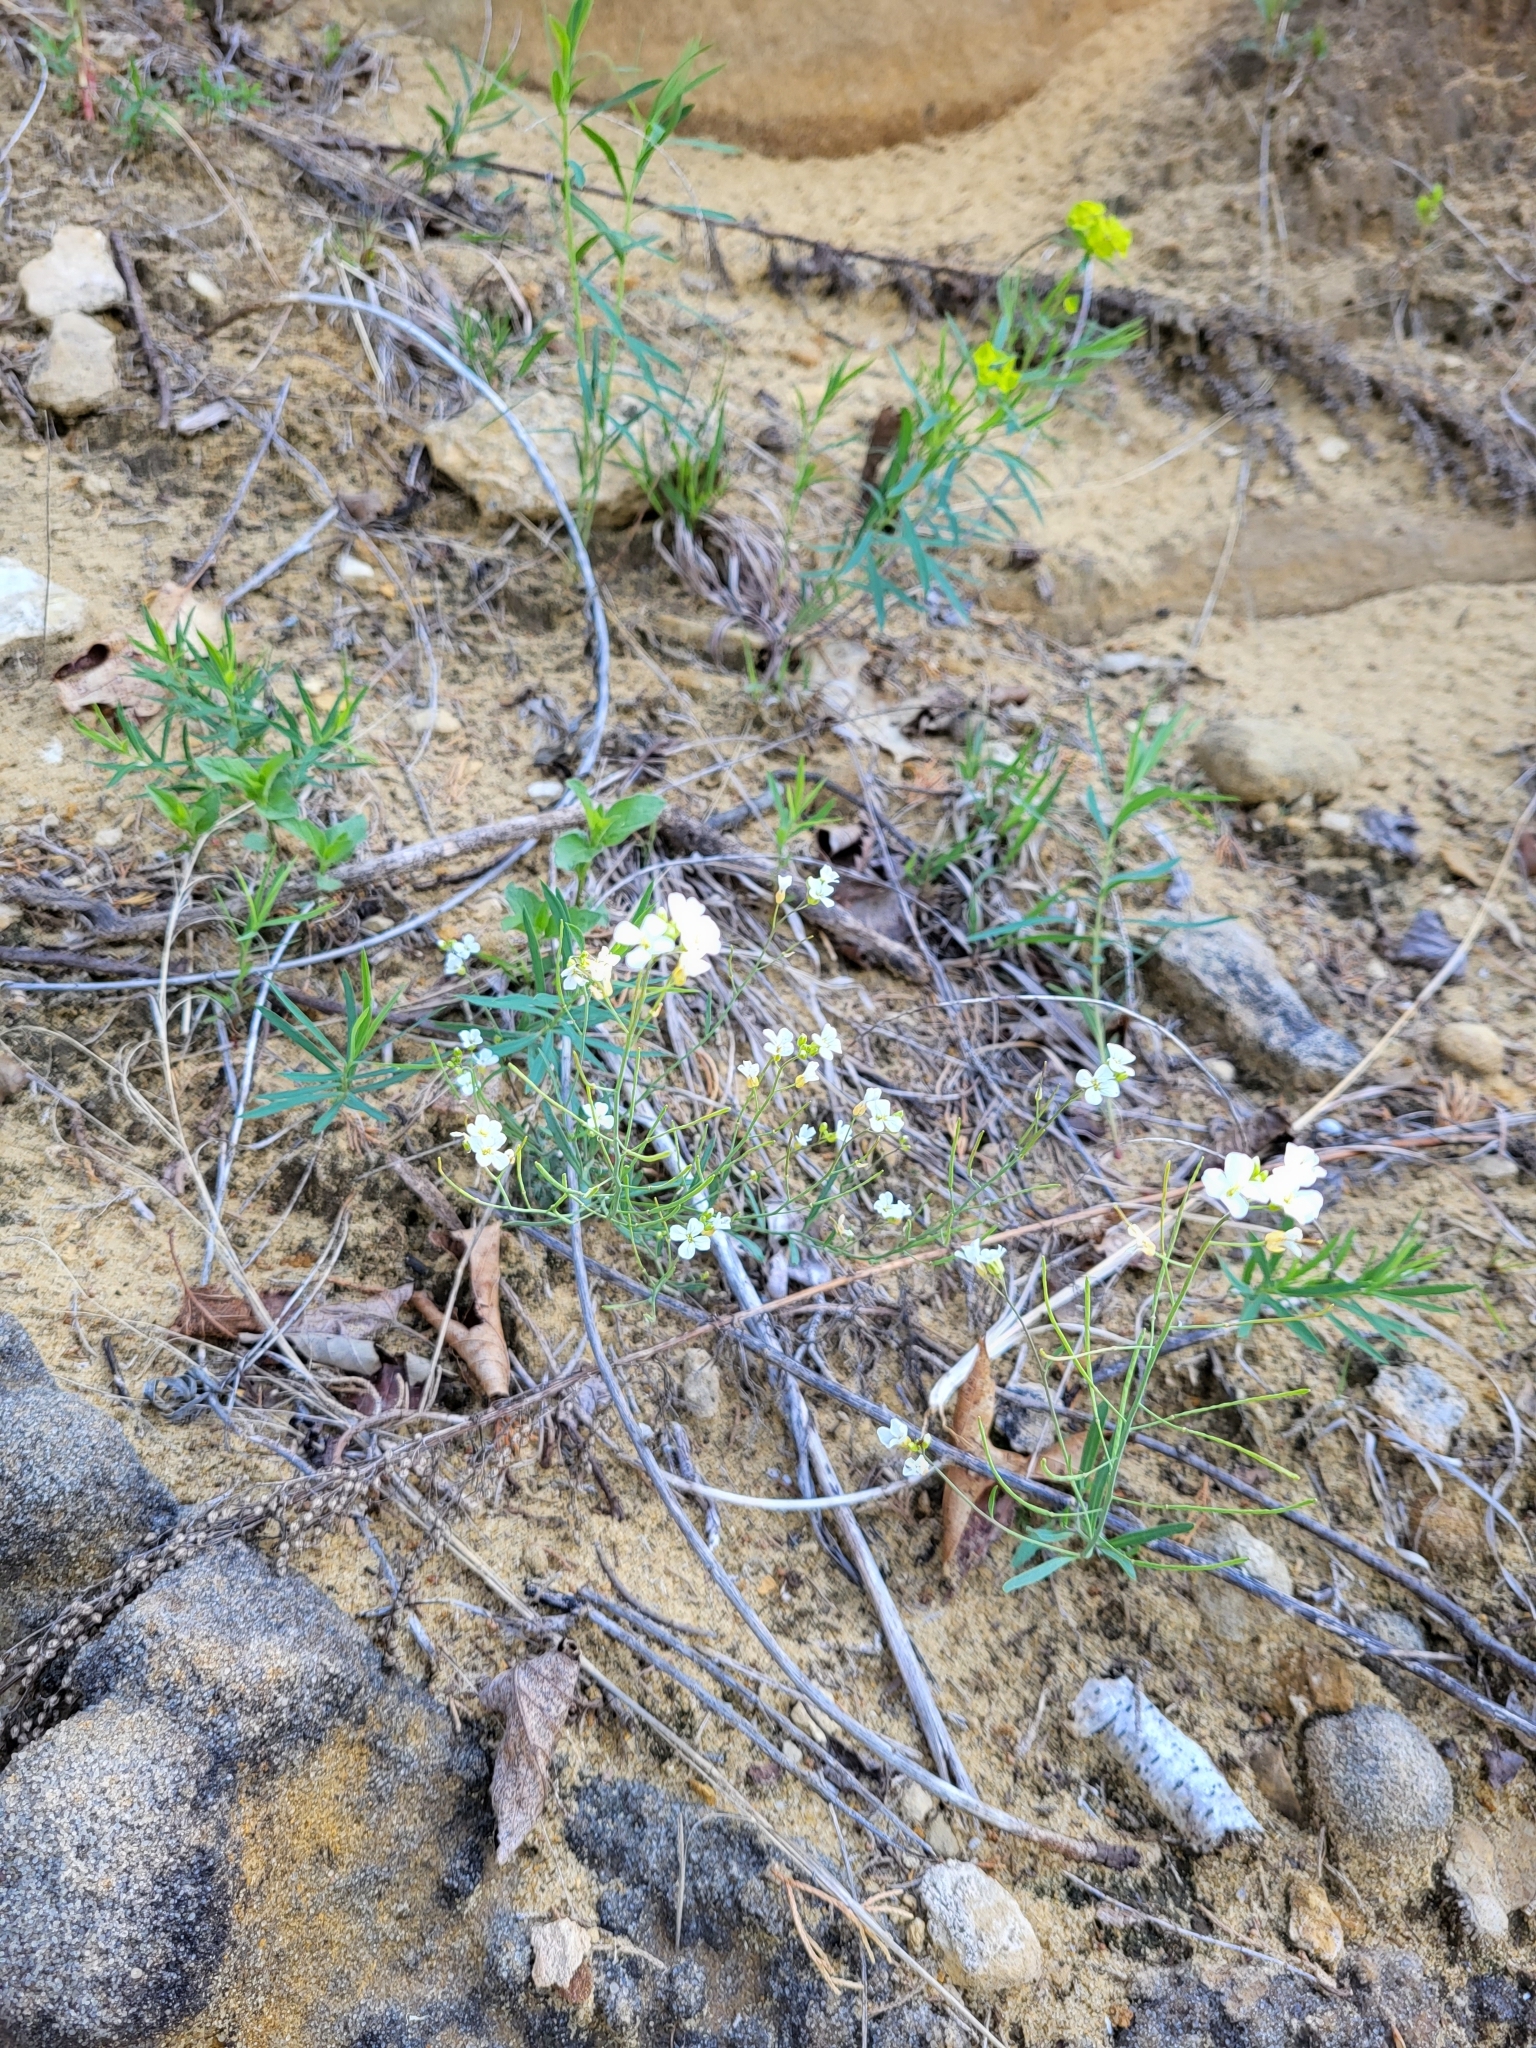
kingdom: Plantae
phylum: Tracheophyta
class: Magnoliopsida
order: Brassicales
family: Brassicaceae
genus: Arabidopsis
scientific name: Arabidopsis lyrata
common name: Lyrate rockcress
